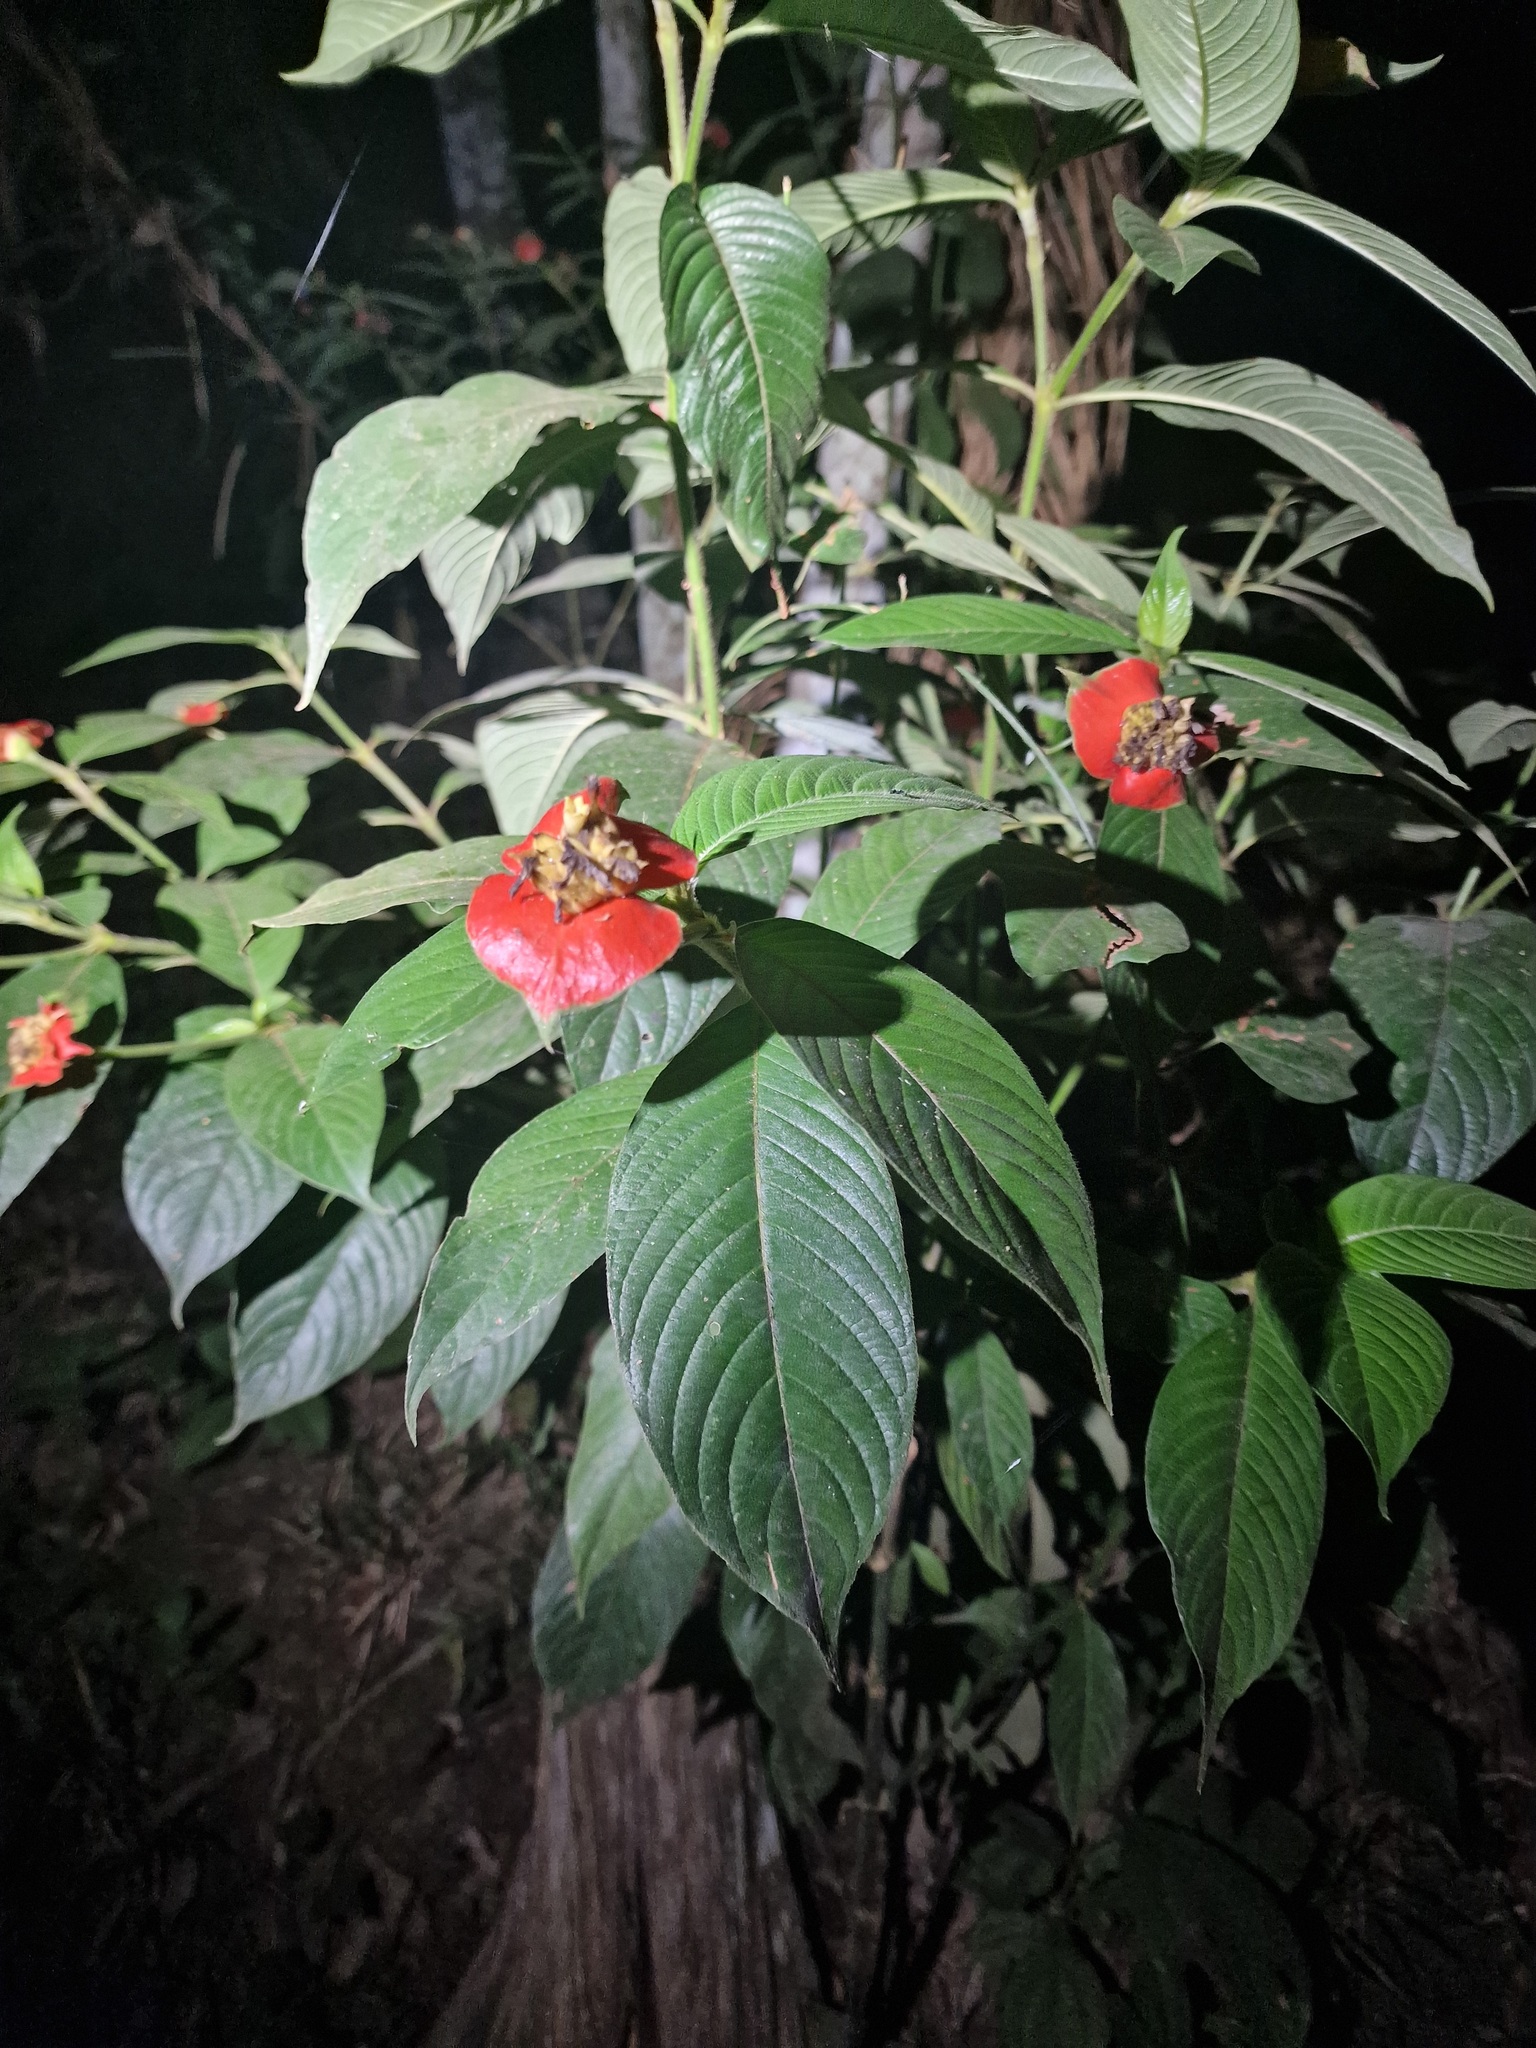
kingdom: Plantae
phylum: Tracheophyta
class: Magnoliopsida
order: Gentianales
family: Rubiaceae
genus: Palicourea
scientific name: Palicourea tomentosa
